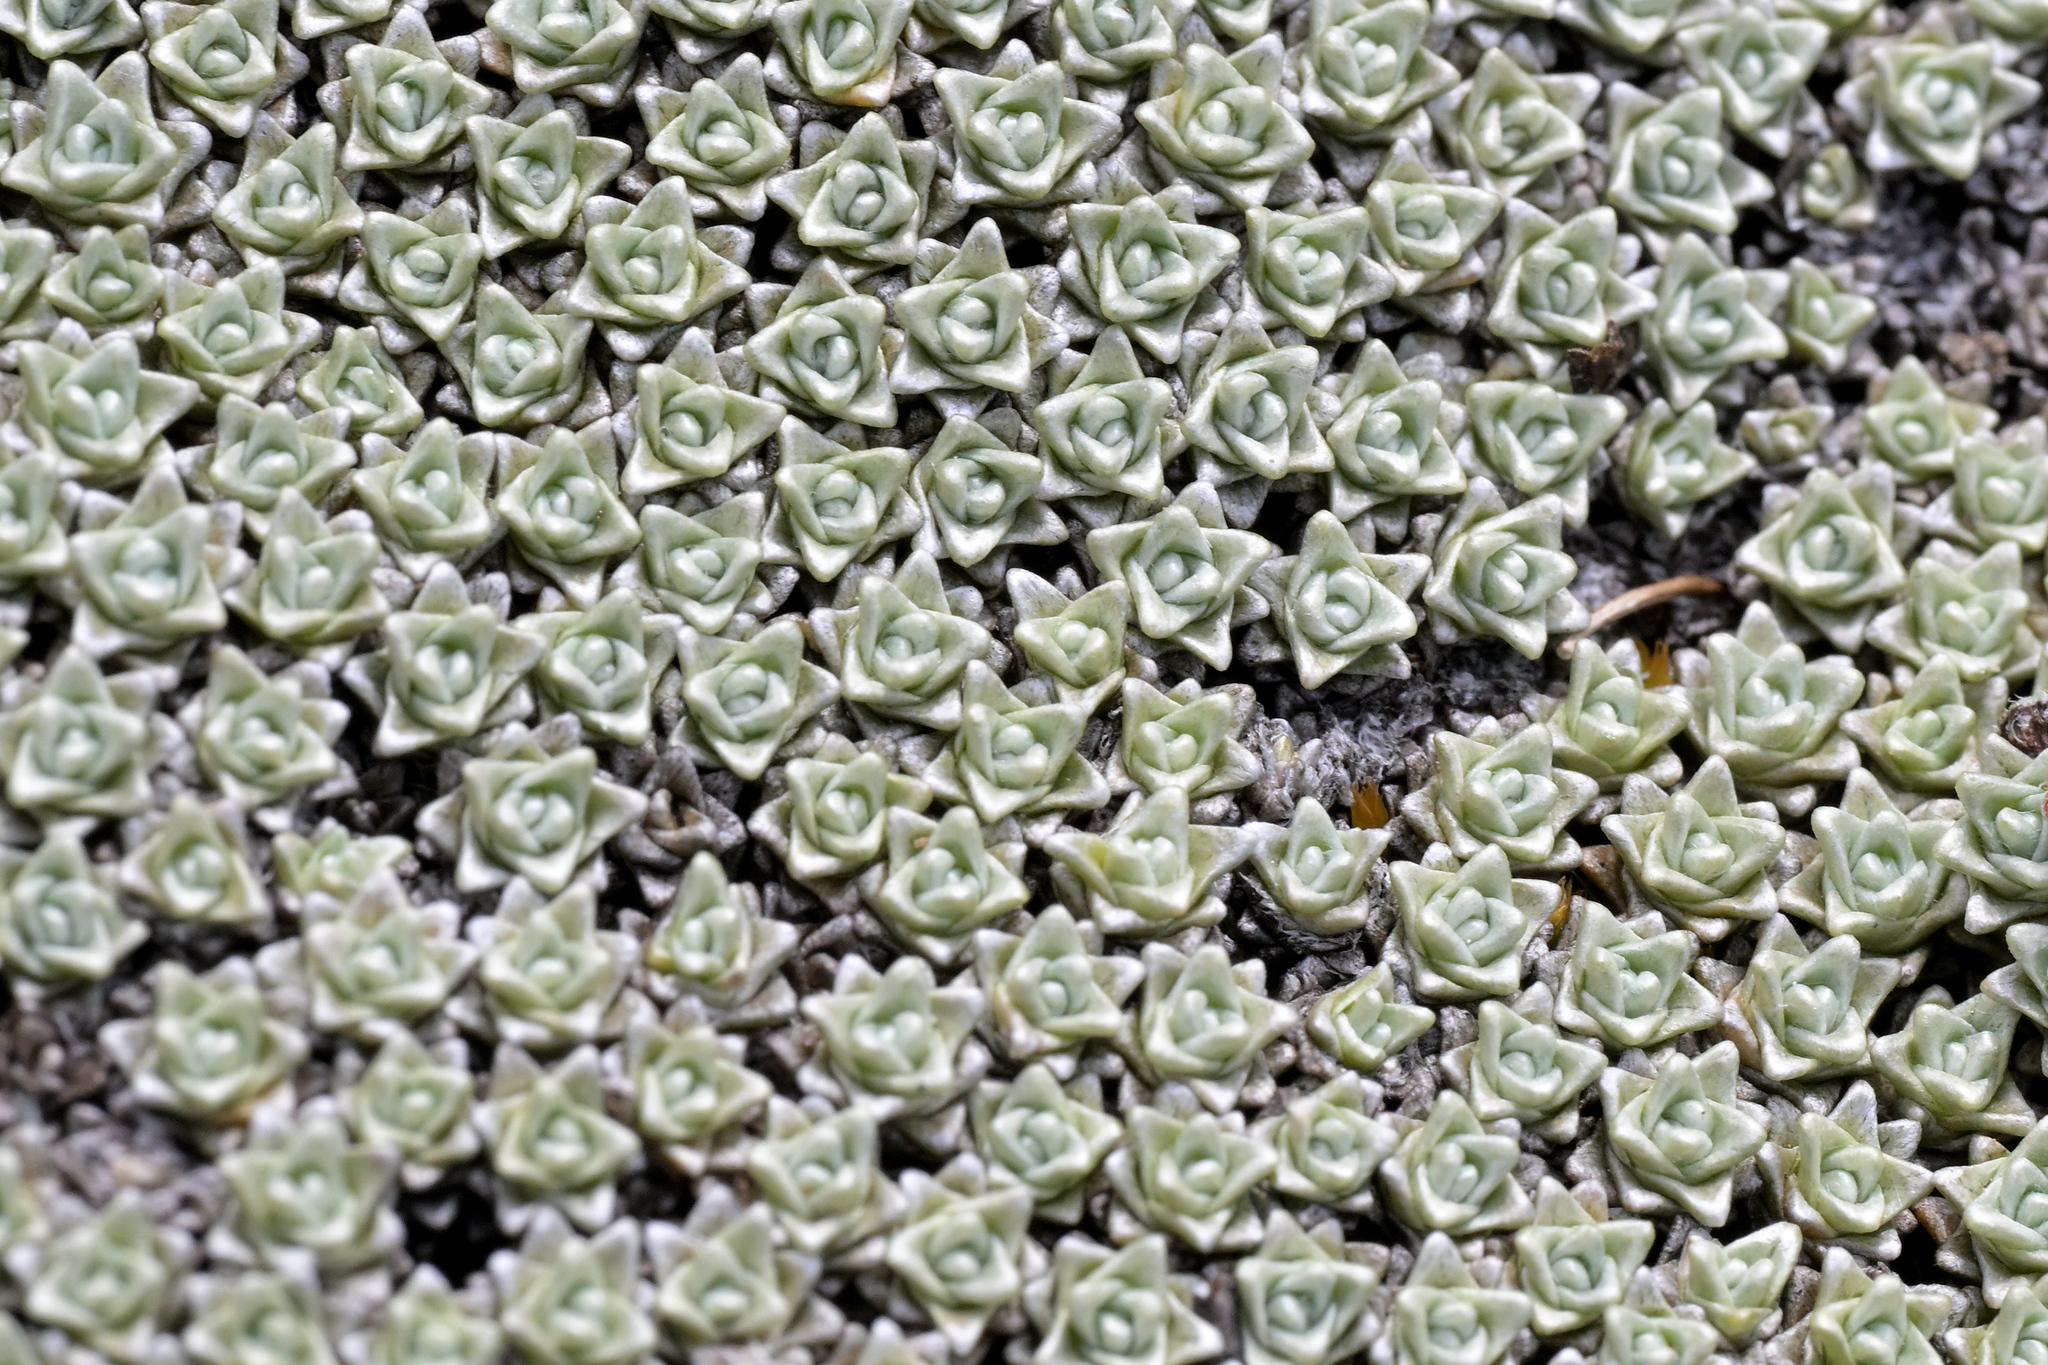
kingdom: Plantae
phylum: Tracheophyta
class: Magnoliopsida
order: Asterales
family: Asteraceae
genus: Raoulia
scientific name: Raoulia hectorii
